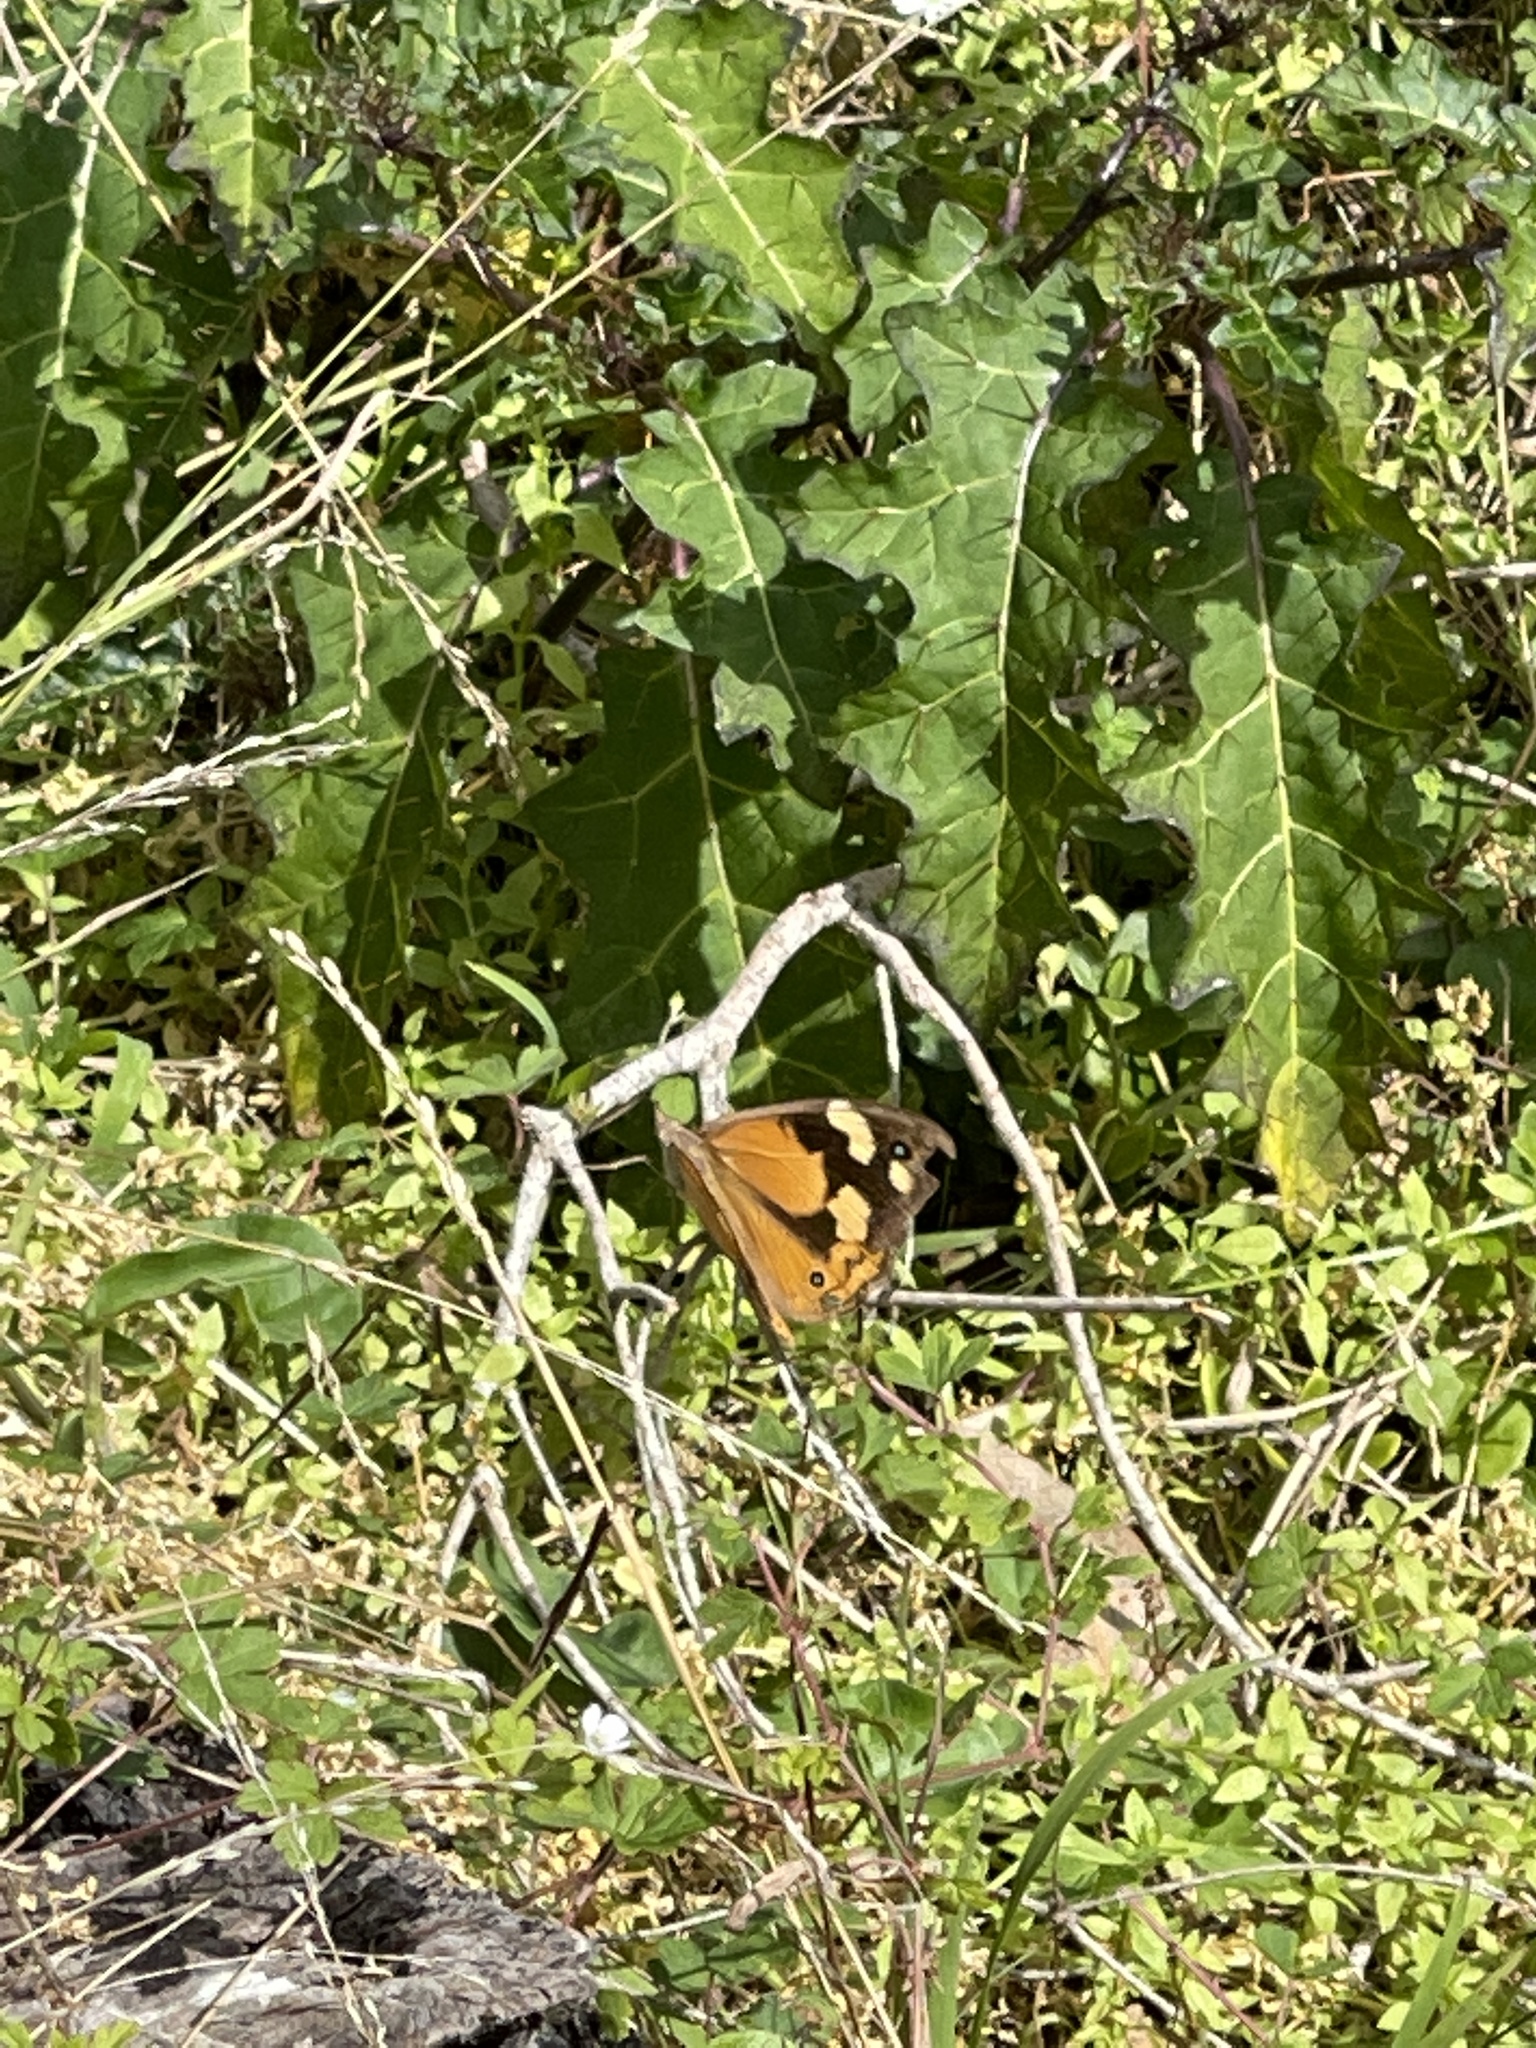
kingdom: Animalia
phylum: Arthropoda
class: Insecta
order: Lepidoptera
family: Nymphalidae
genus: Heteronympha
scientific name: Heteronympha merope
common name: Common brown
